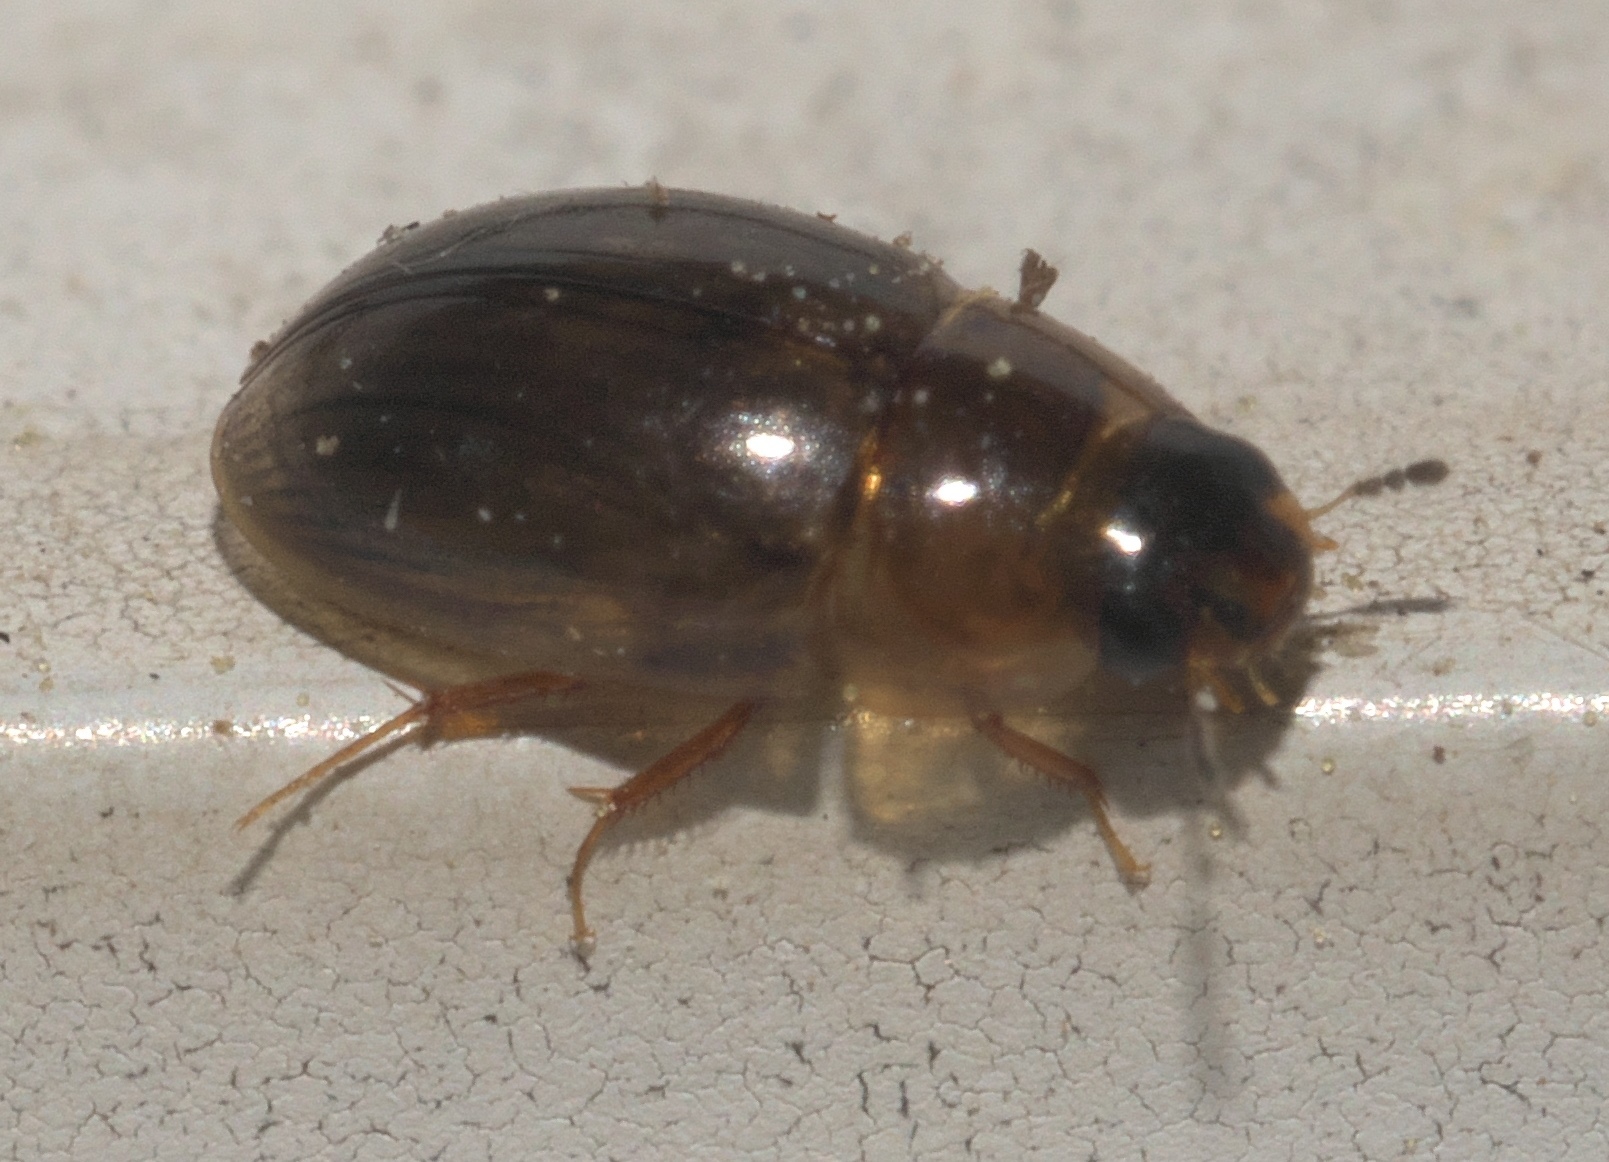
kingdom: Animalia
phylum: Arthropoda
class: Insecta
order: Coleoptera
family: Hydrophilidae
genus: Enochrus
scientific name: Enochrus
